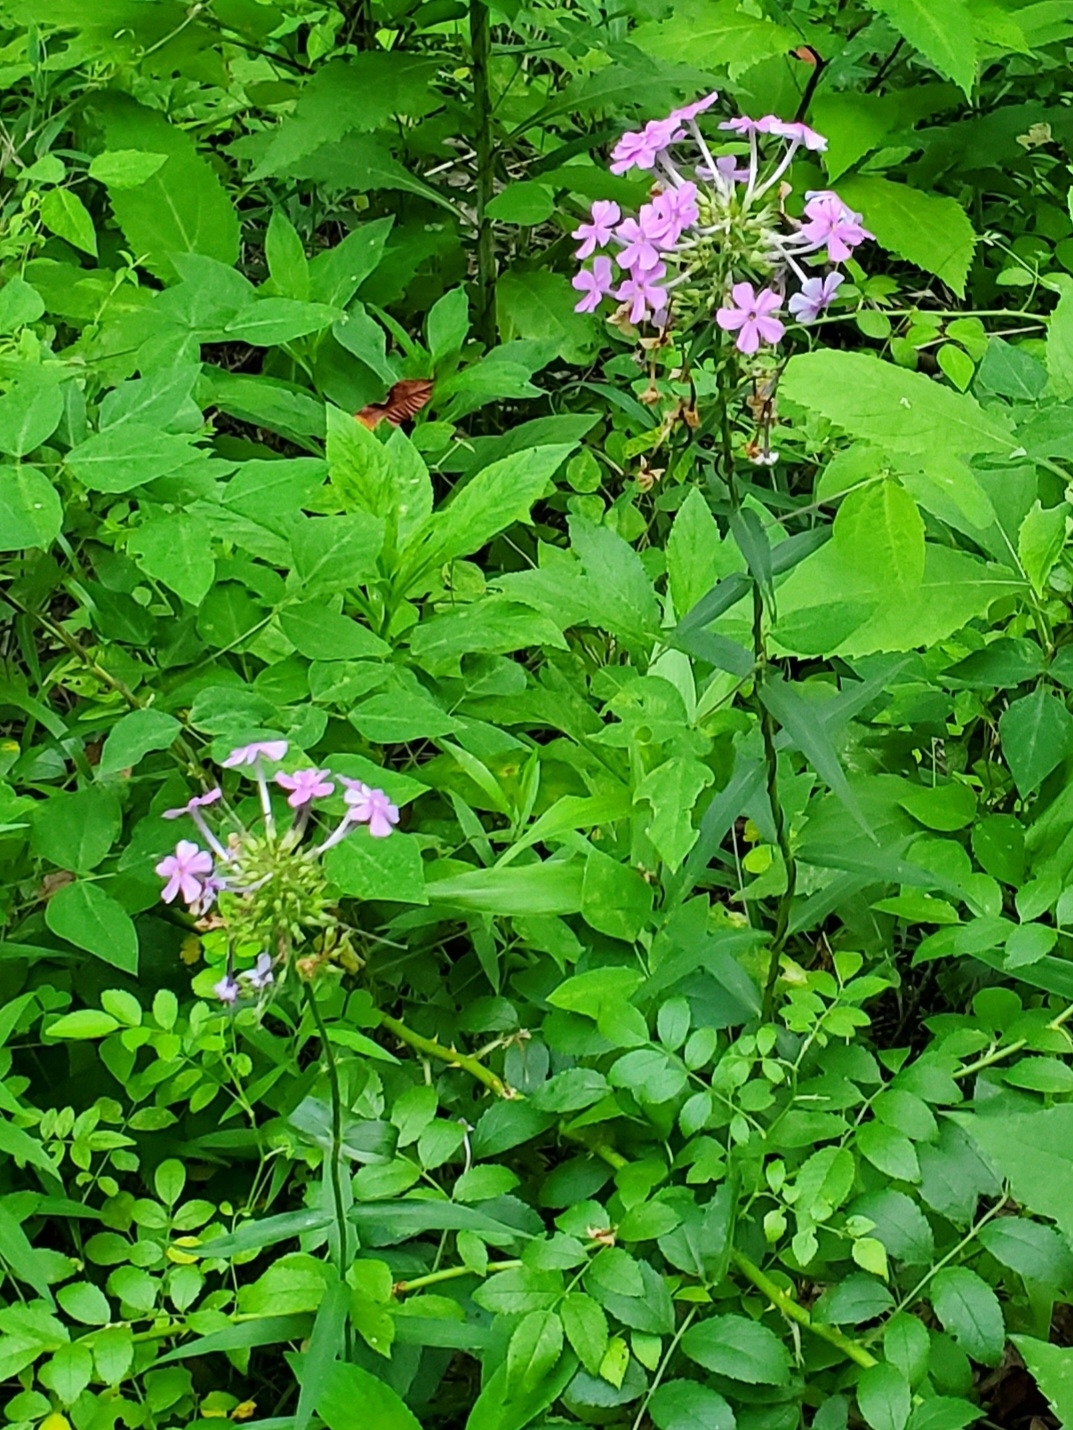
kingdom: Plantae
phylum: Tracheophyta
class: Magnoliopsida
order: Ericales
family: Polemoniaceae
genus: Phlox
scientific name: Phlox maculata
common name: Meadow phlox
